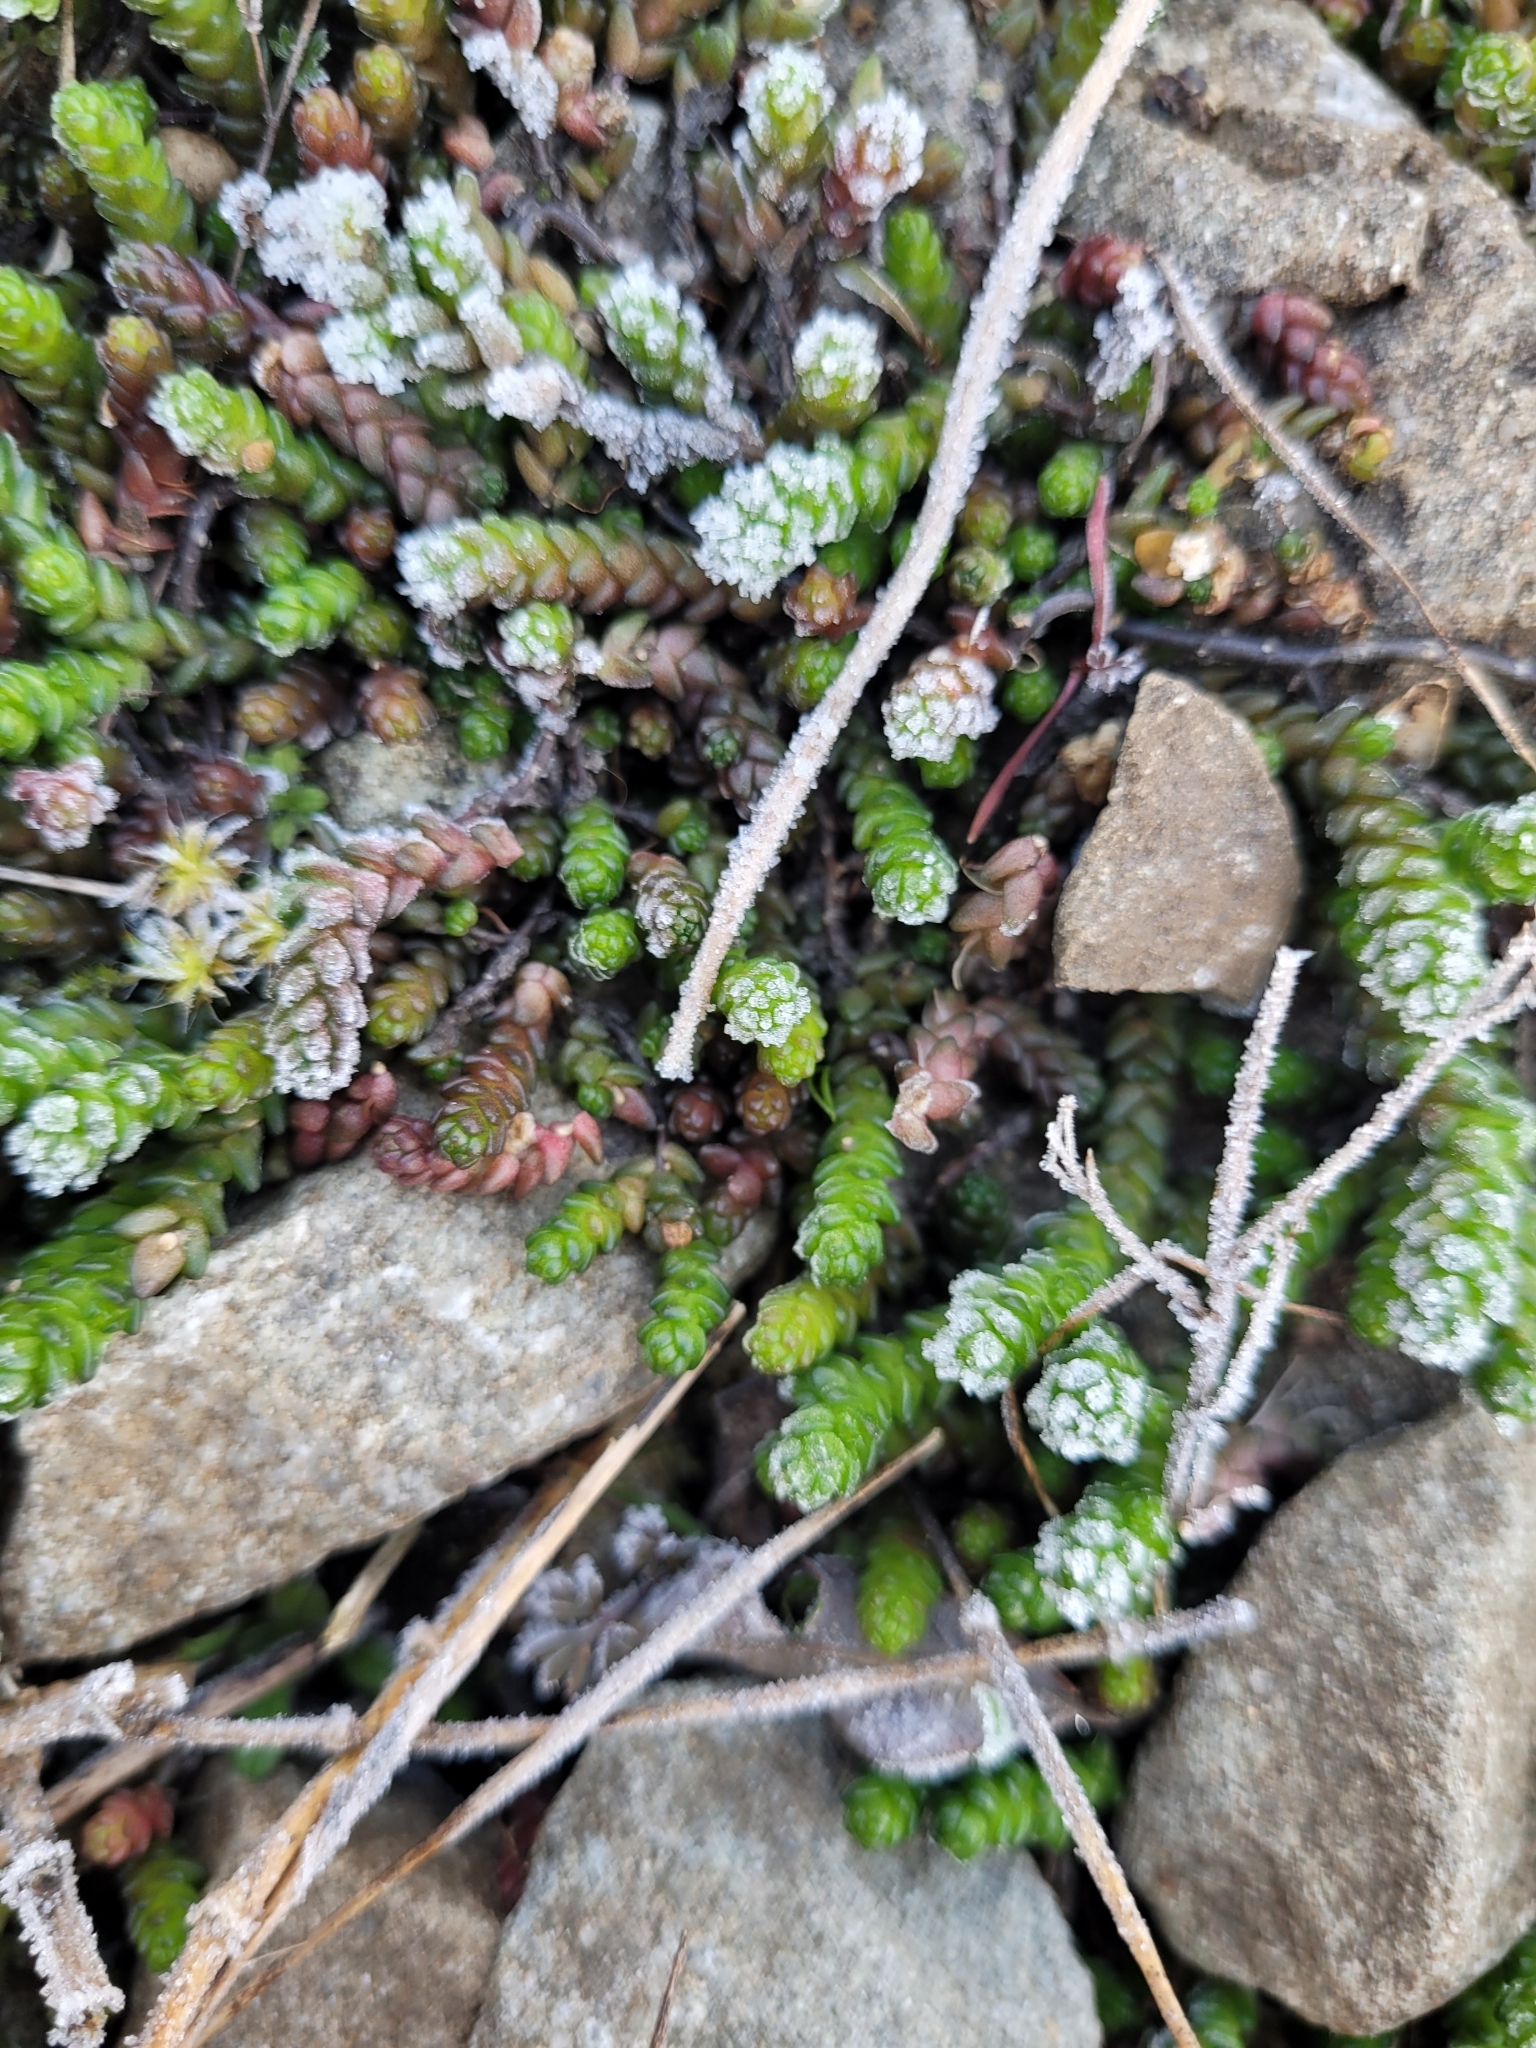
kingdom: Plantae
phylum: Tracheophyta
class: Magnoliopsida
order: Saxifragales
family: Crassulaceae
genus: Sedum
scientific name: Sedum acre
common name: Biting stonecrop
